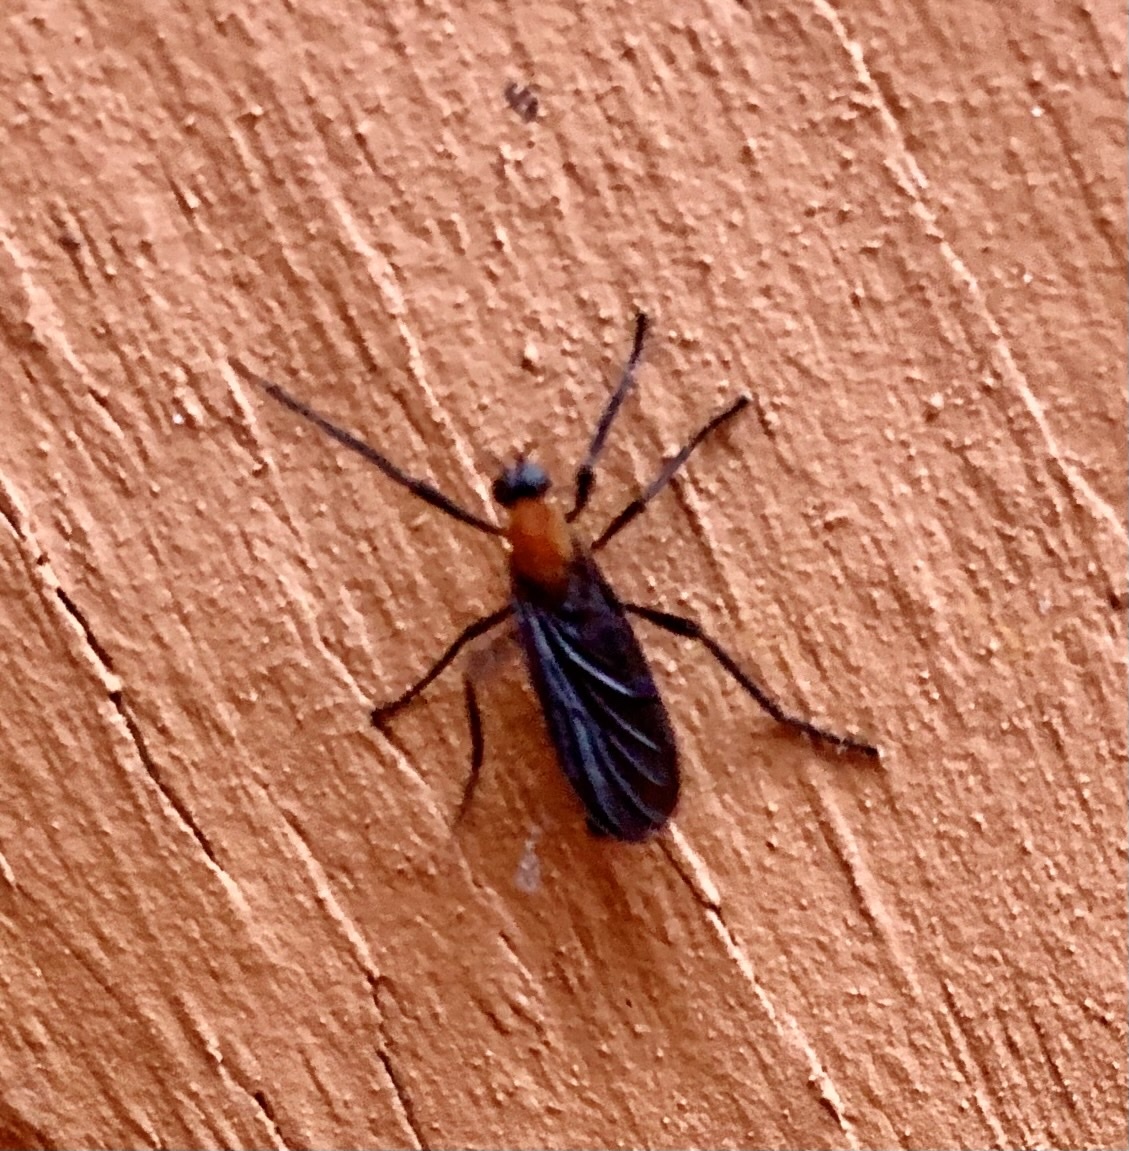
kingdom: Animalia
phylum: Arthropoda
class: Insecta
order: Diptera
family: Bibionidae
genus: Plecia
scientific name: Plecia americana
